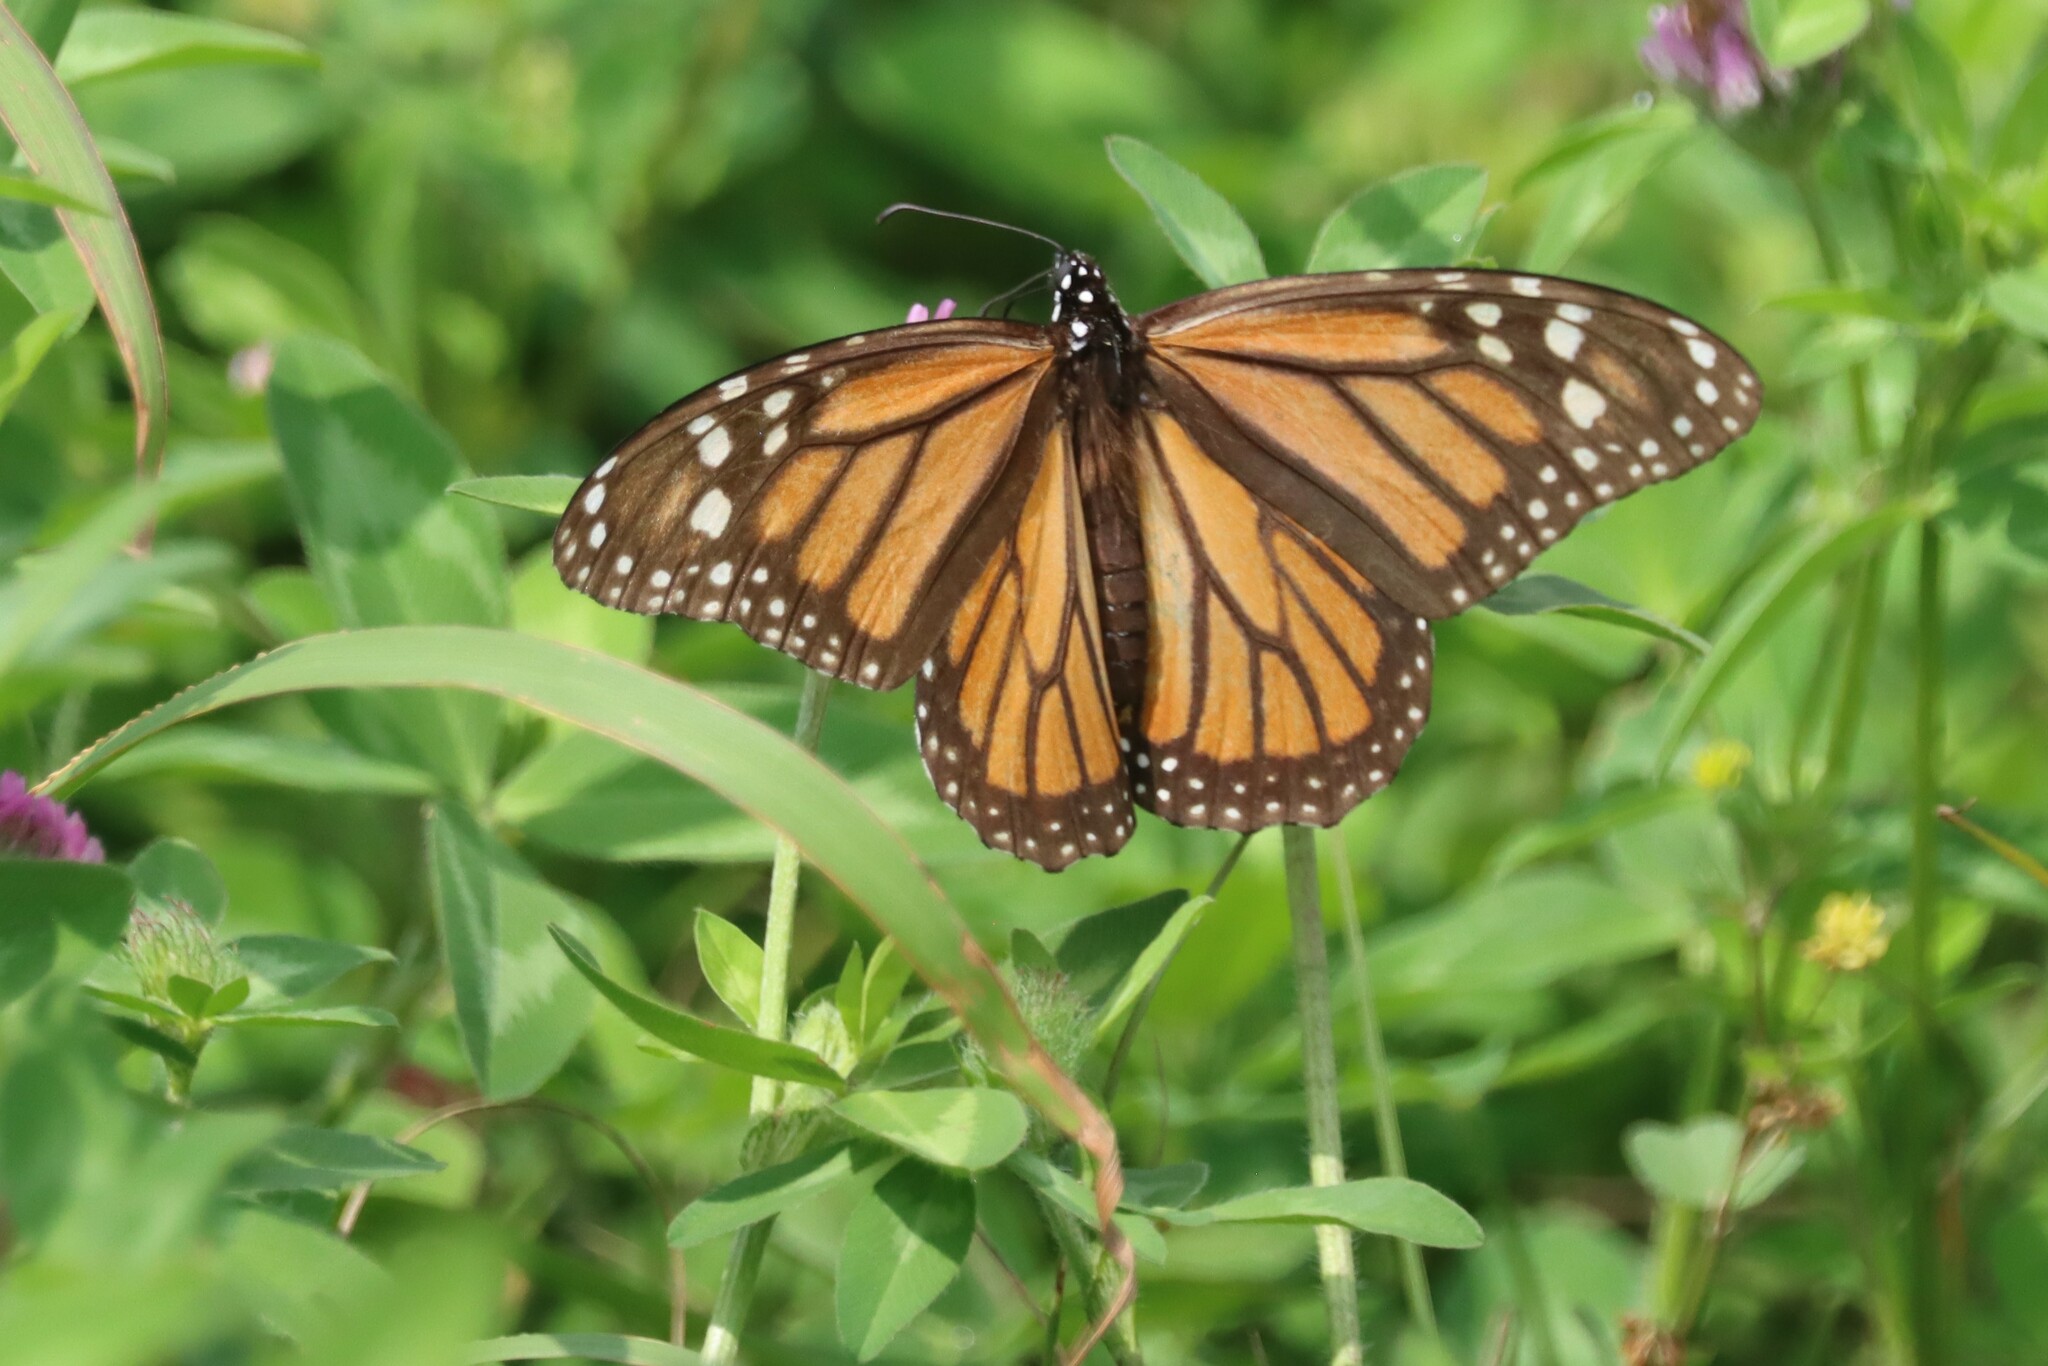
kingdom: Animalia
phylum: Arthropoda
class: Insecta
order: Lepidoptera
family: Nymphalidae
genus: Danaus
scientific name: Danaus plexippus
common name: Monarch
